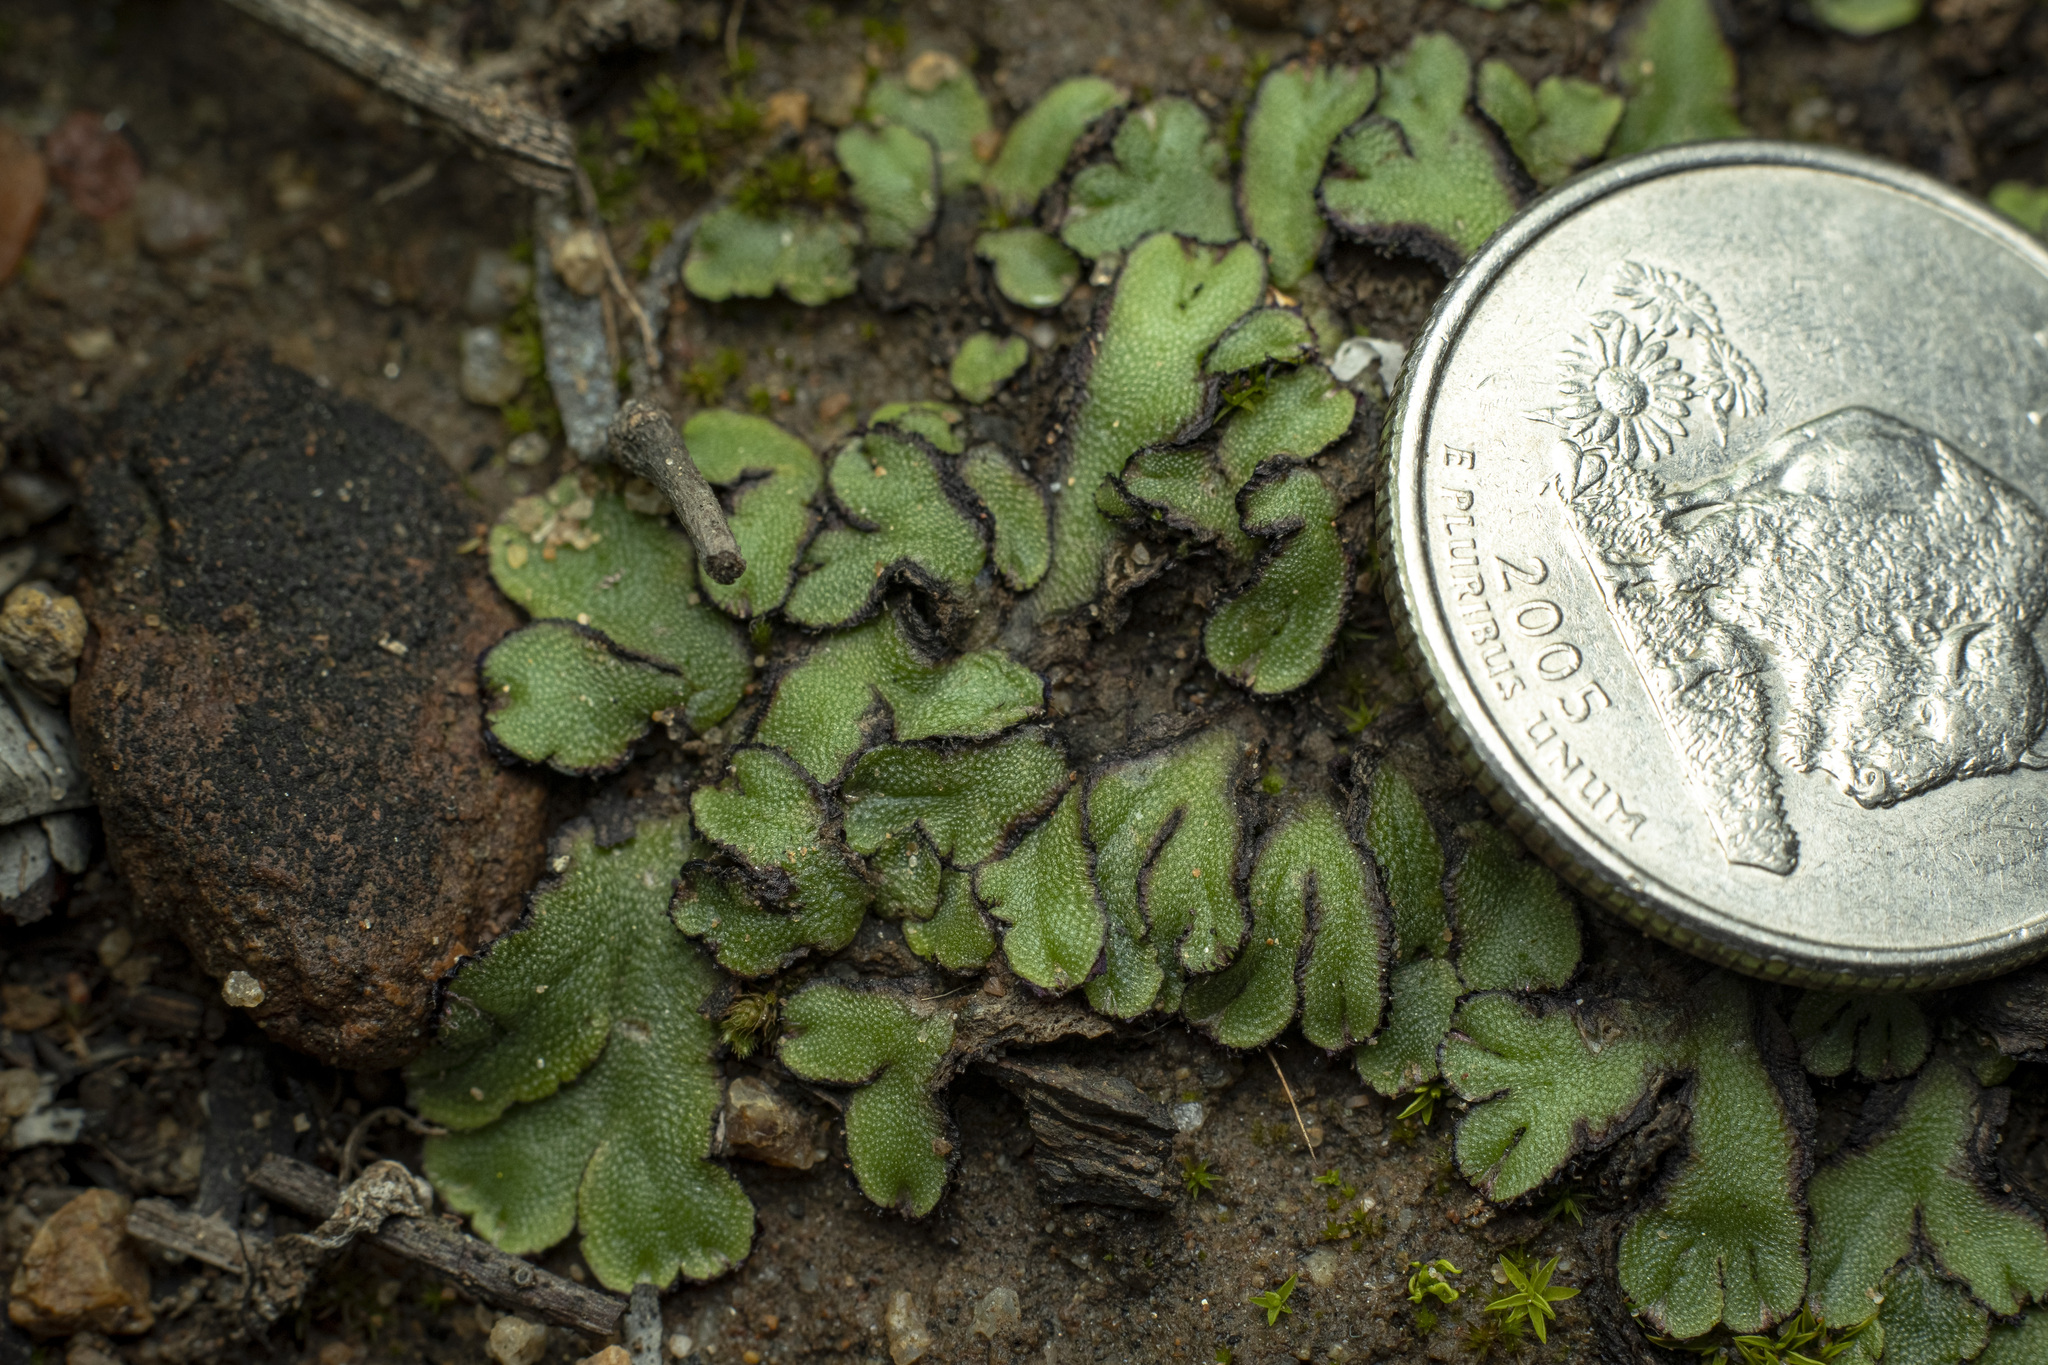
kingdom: Plantae
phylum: Marchantiophyta
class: Marchantiopsida
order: Marchantiales
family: Aytoniaceae
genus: Asterella
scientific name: Asterella palmeri
